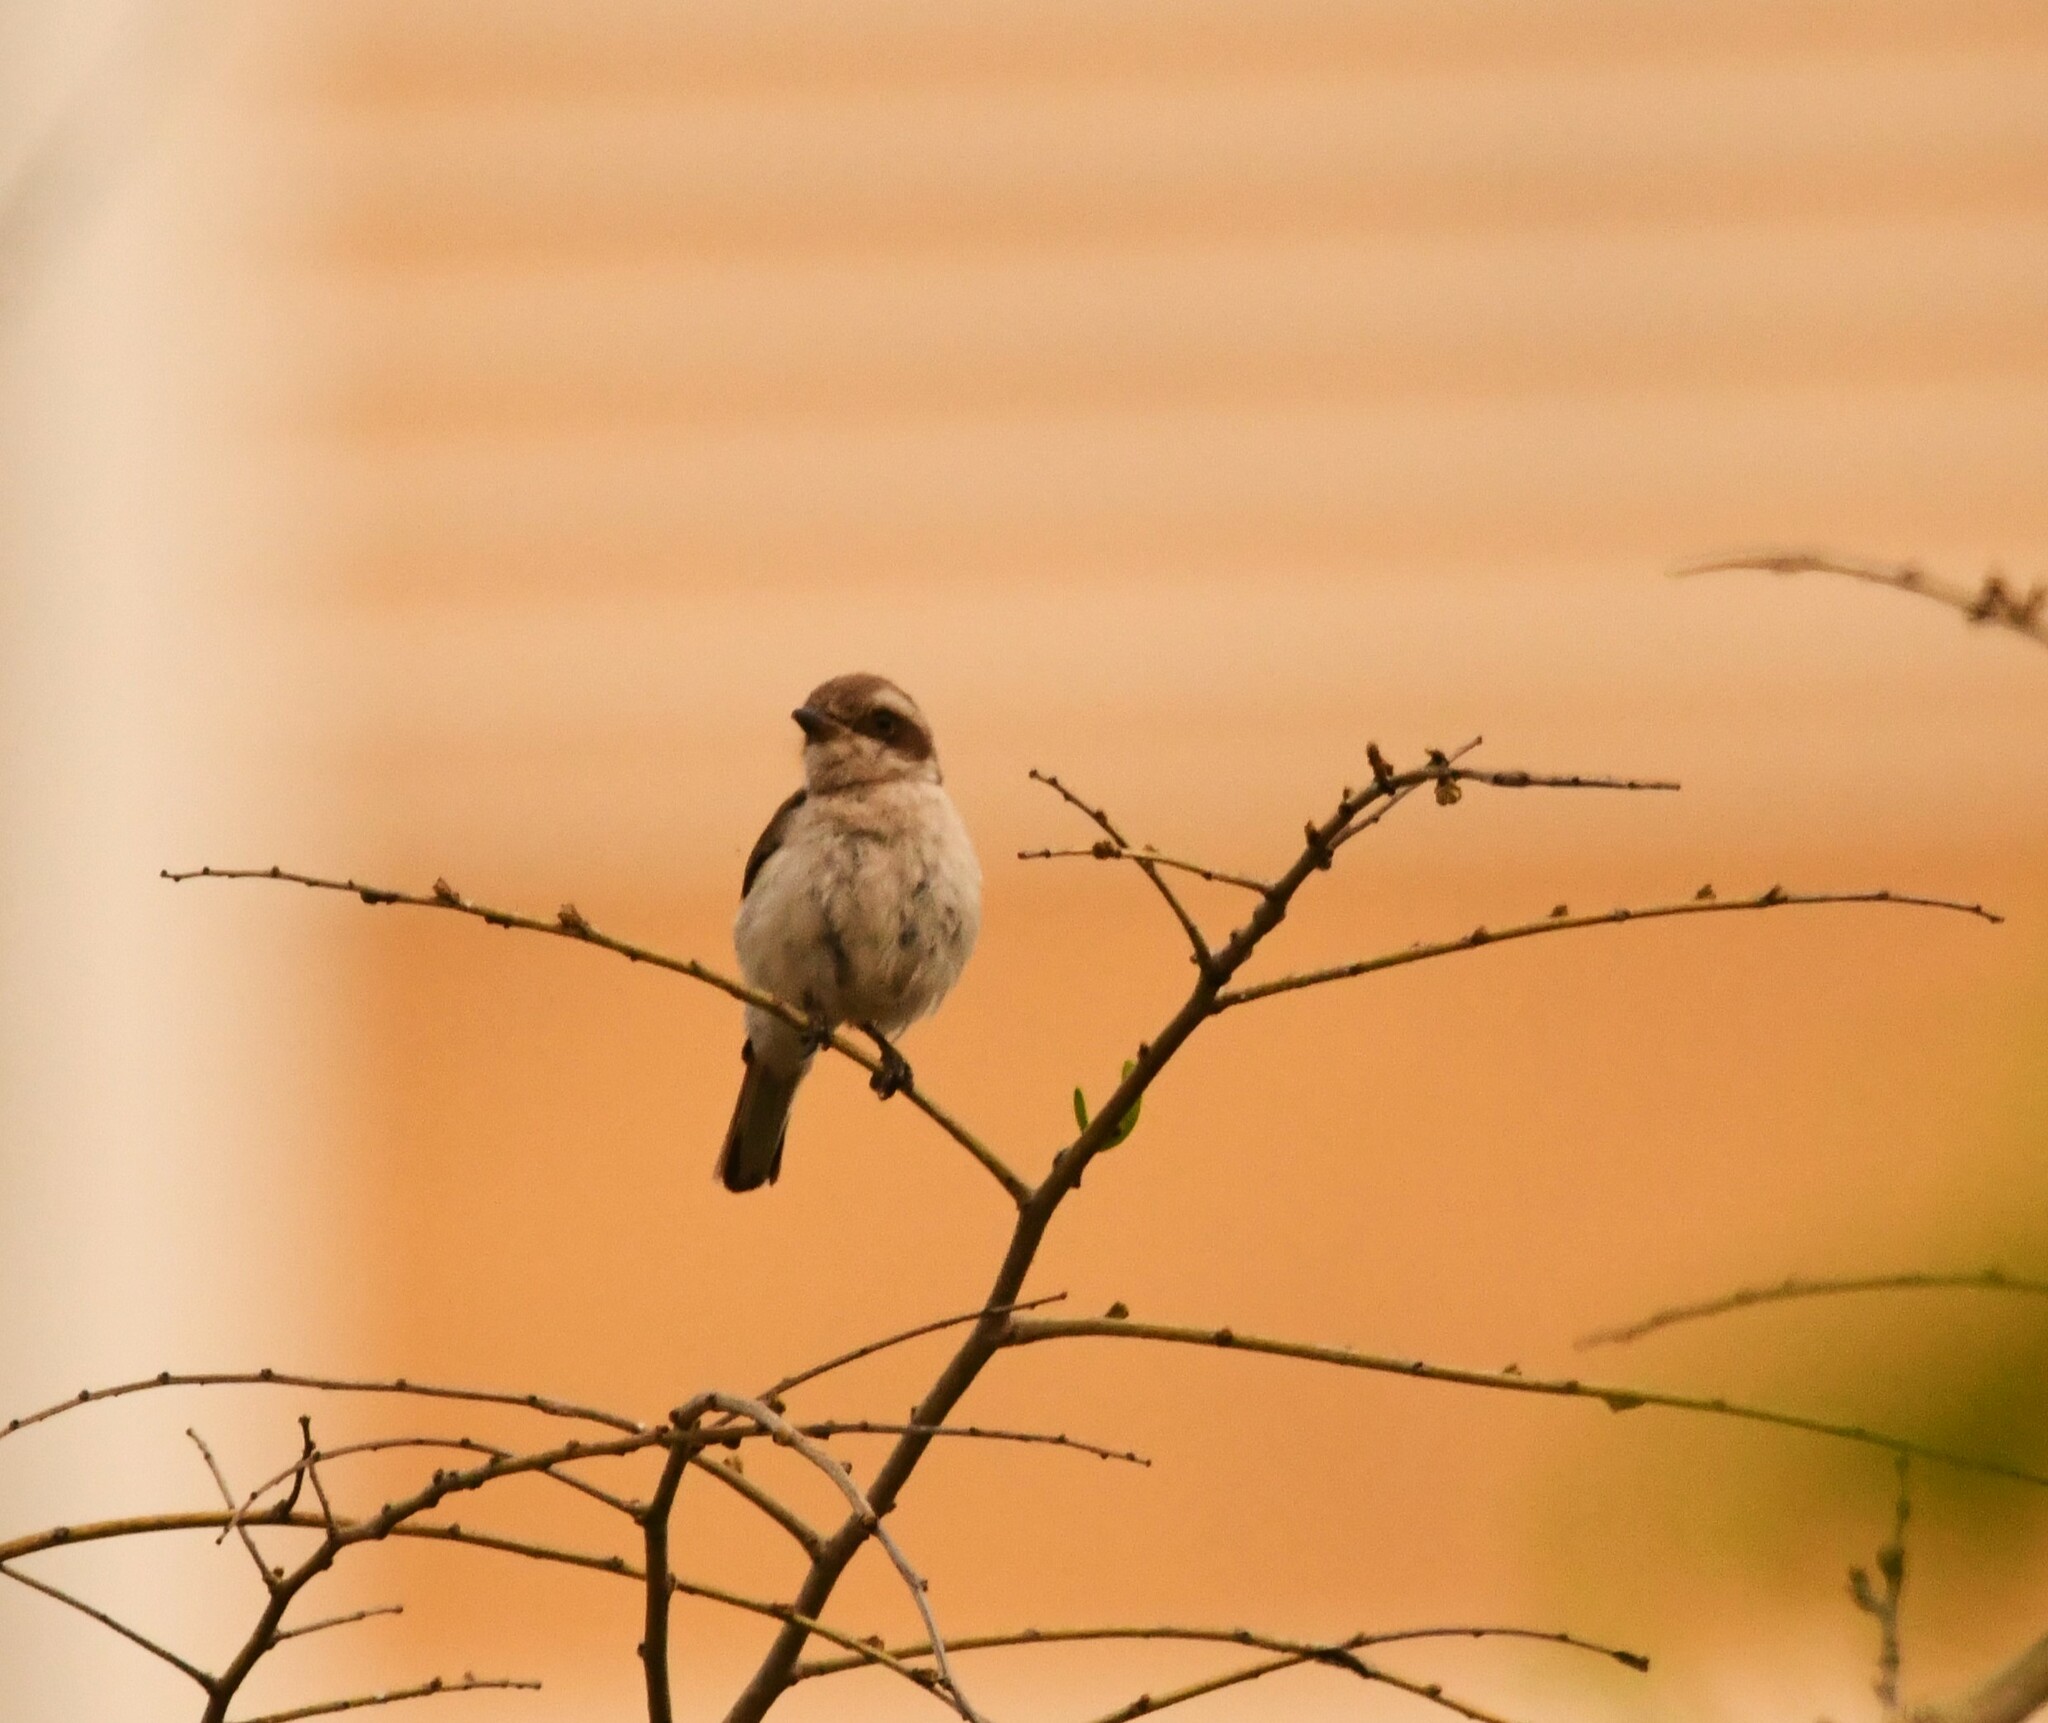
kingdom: Animalia
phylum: Chordata
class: Aves
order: Passeriformes
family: Tephrodornithidae
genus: Tephrodornis
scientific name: Tephrodornis pondicerianus
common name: Common woodshrike
